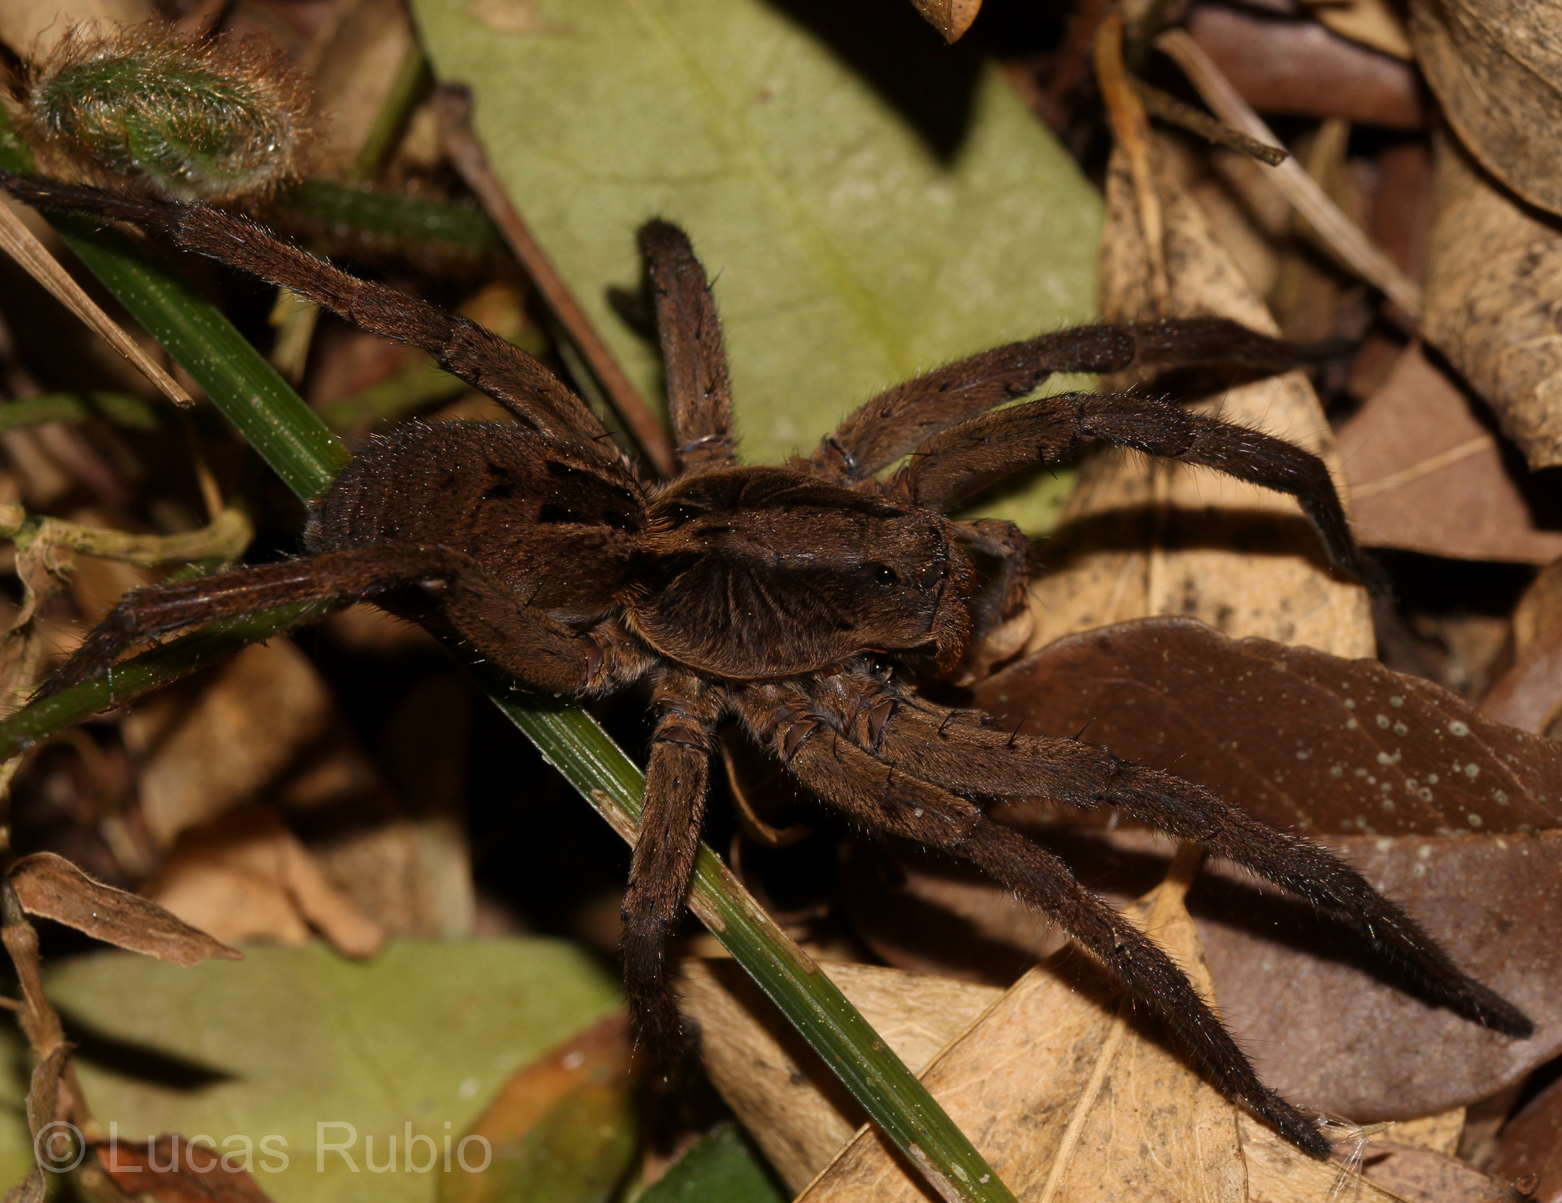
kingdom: Animalia
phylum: Arthropoda
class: Arachnida
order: Araneae
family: Lycosidae
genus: Lycosa
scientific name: Lycosa erythrognatha
